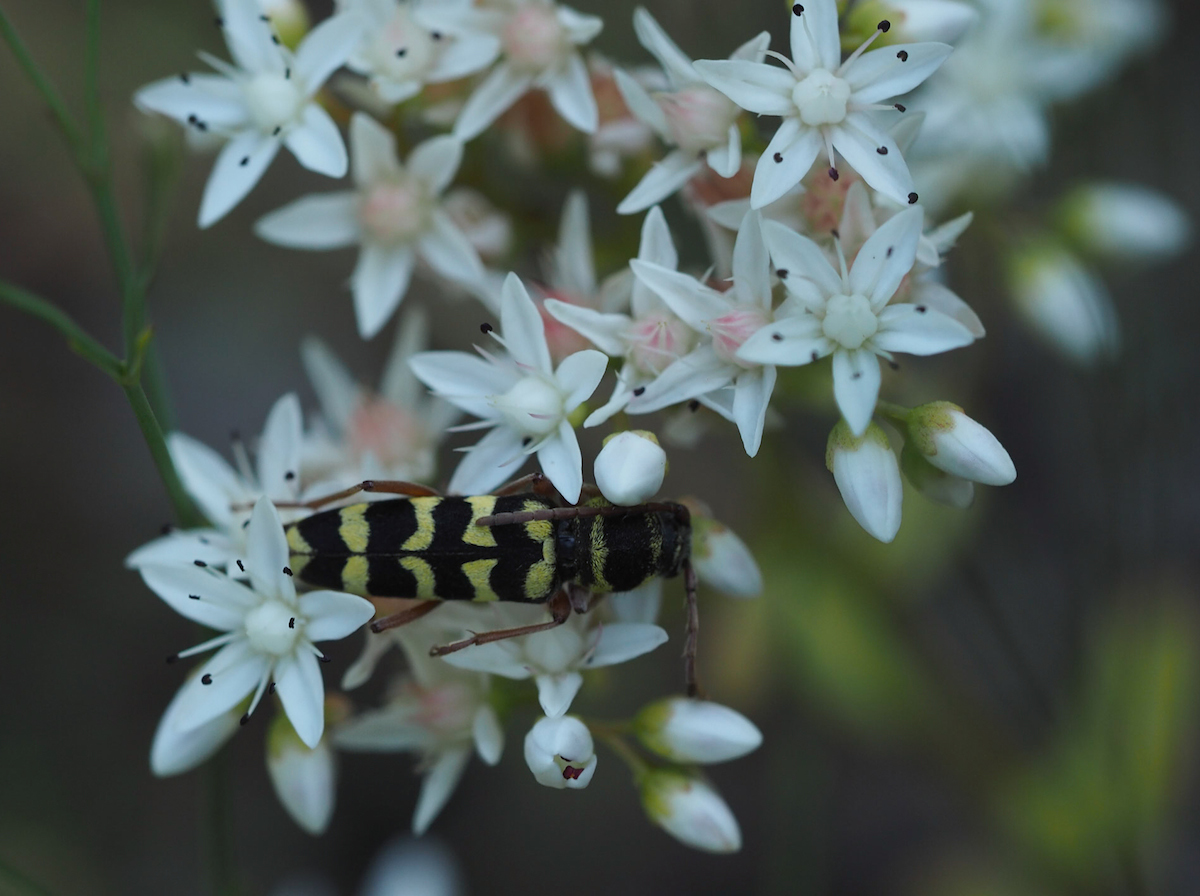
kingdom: Animalia
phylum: Arthropoda
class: Insecta
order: Coleoptera
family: Cerambycidae
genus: Plagionotus
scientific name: Plagionotus floralis
